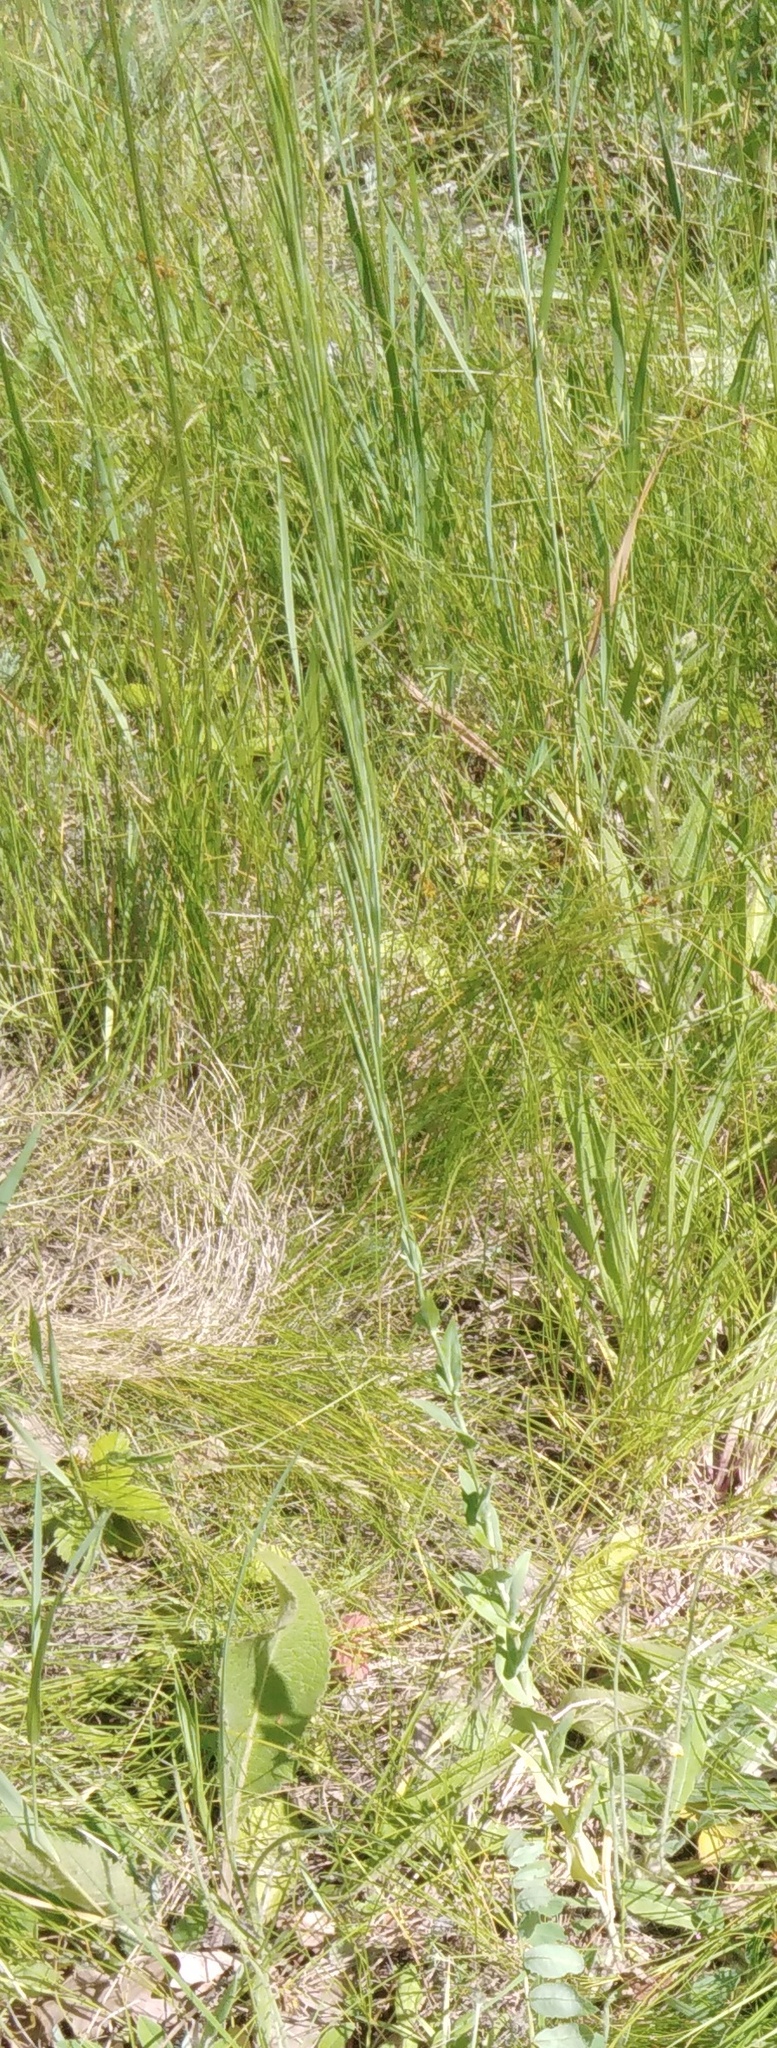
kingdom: Plantae
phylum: Tracheophyta
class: Magnoliopsida
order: Brassicales
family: Brassicaceae
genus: Turritis
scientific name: Turritis glabra
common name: Tower rockcress
